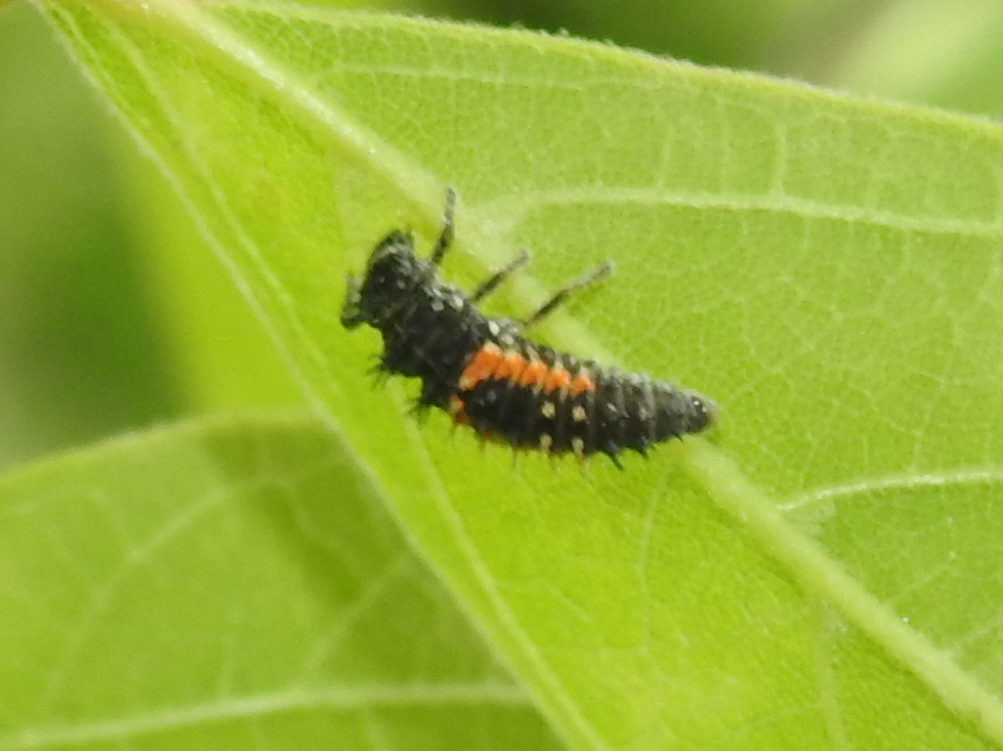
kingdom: Animalia
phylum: Arthropoda
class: Insecta
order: Coleoptera
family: Coccinellidae
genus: Harmonia
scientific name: Harmonia axyridis
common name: Harlequin ladybird
